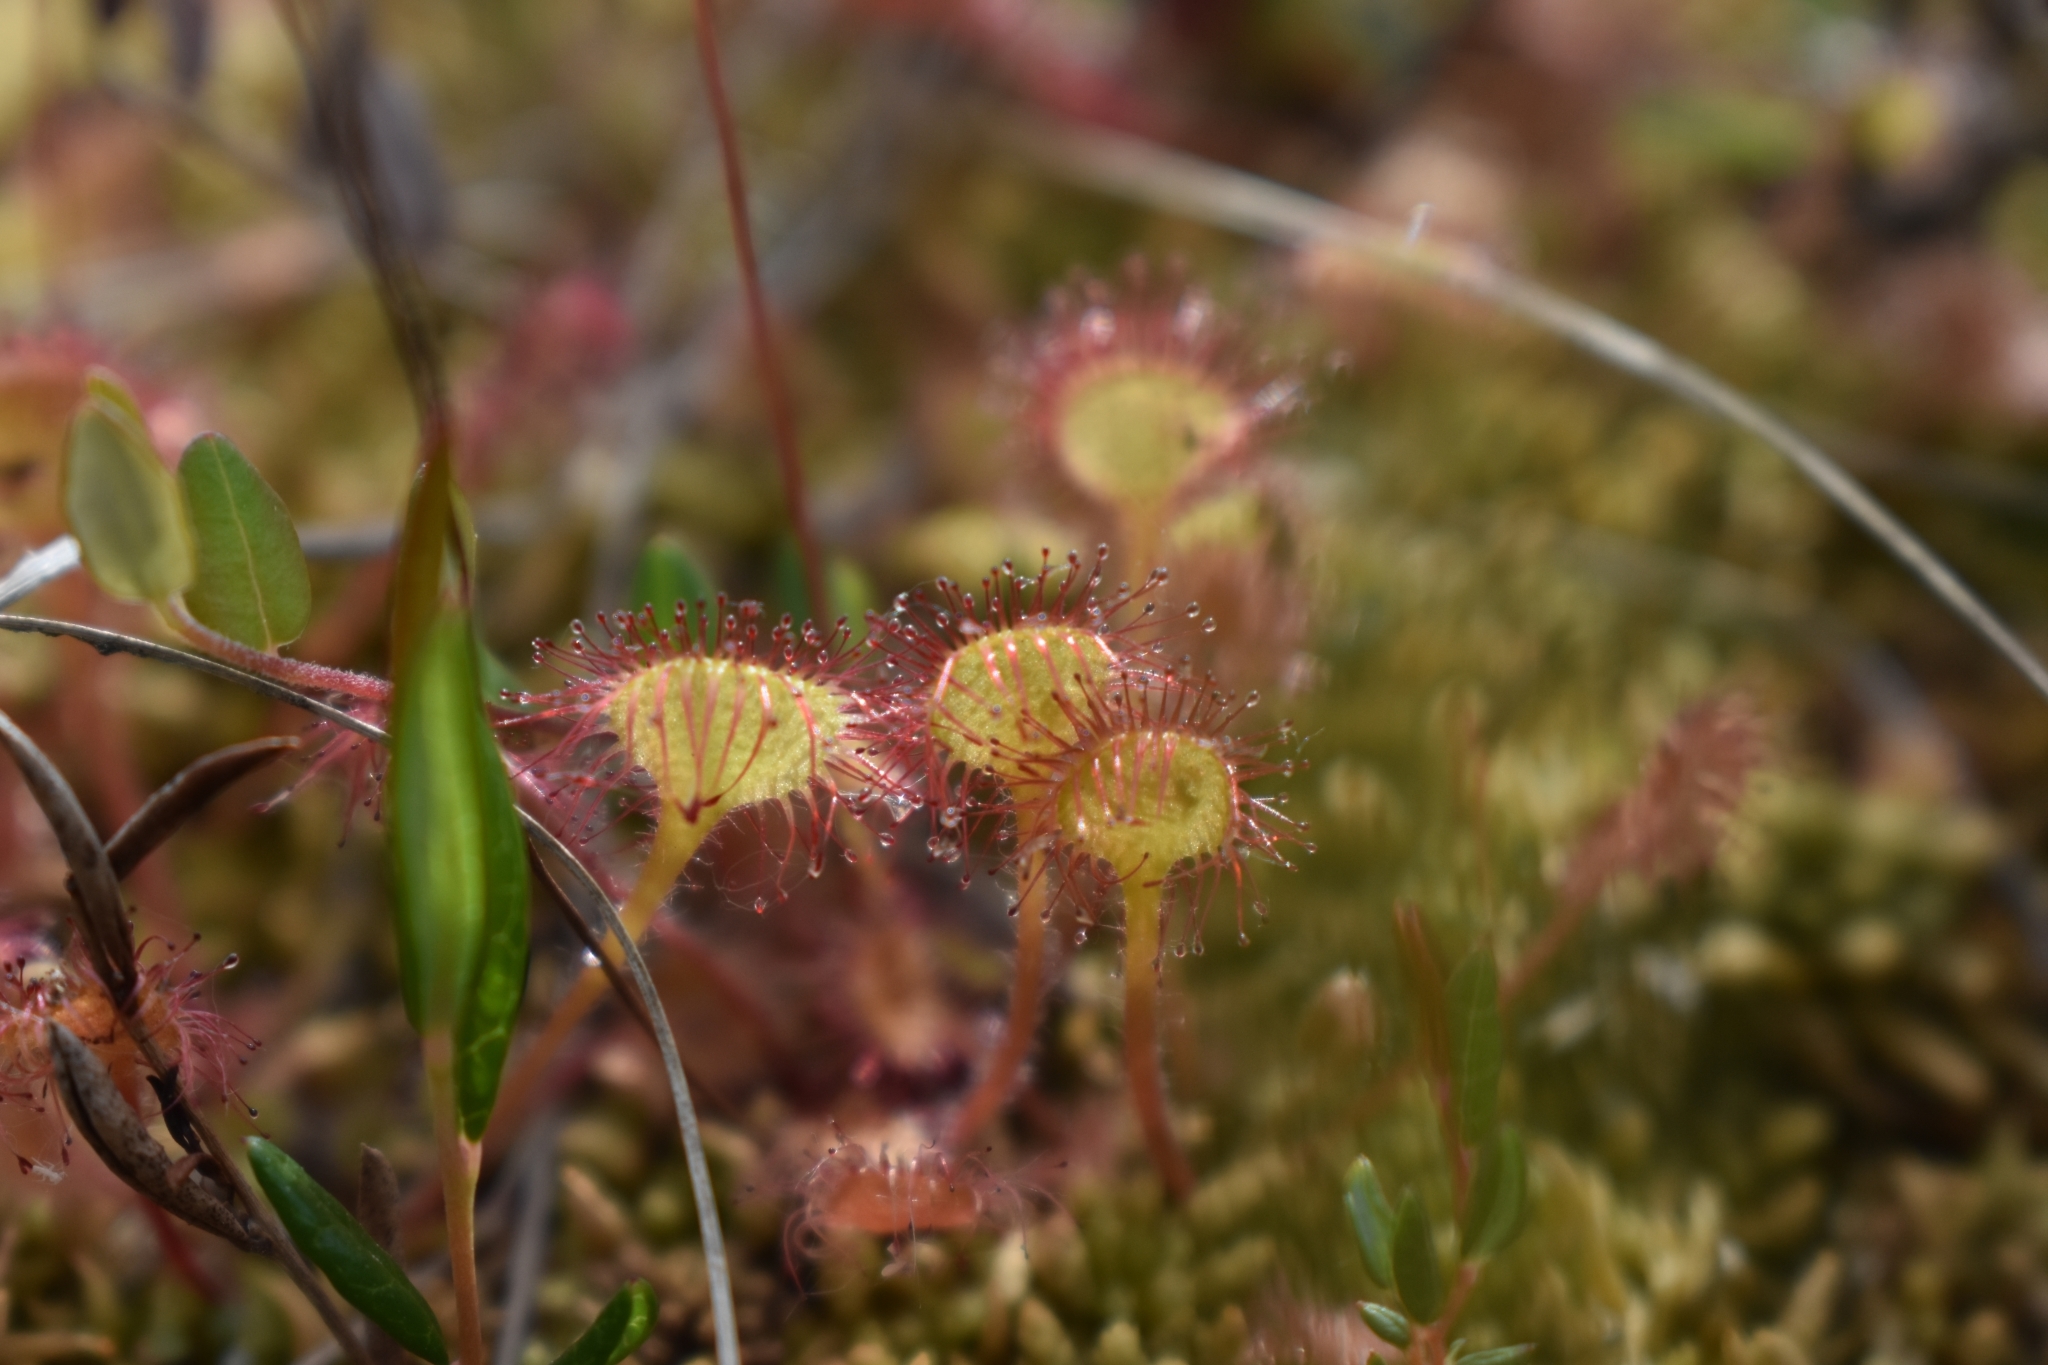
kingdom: Plantae
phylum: Tracheophyta
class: Magnoliopsida
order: Caryophyllales
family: Droseraceae
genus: Drosera
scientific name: Drosera rotundifolia
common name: Round-leaved sundew
